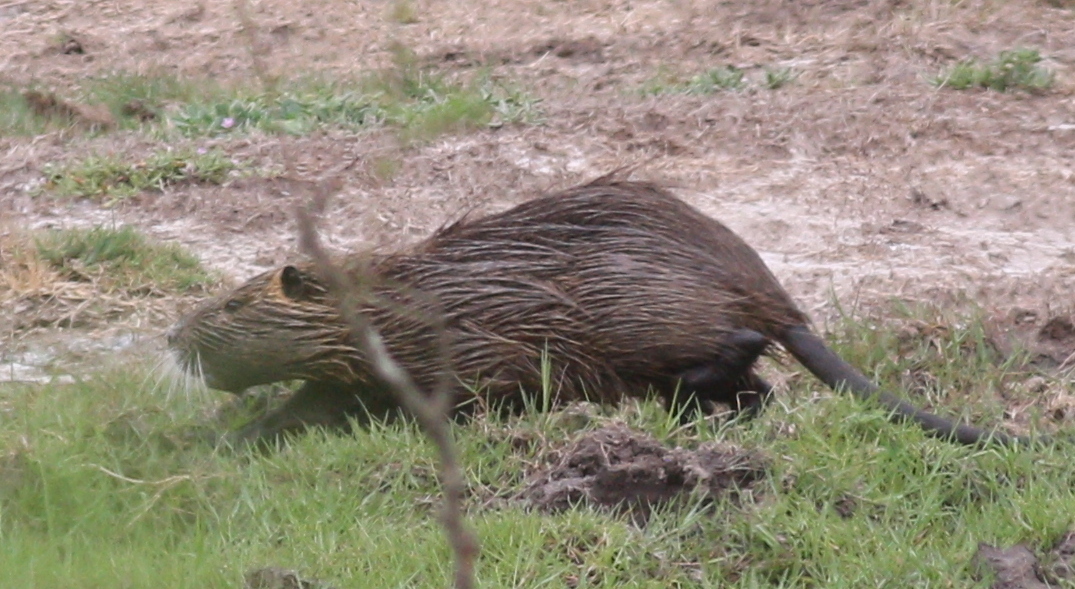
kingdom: Animalia
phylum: Chordata
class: Mammalia
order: Rodentia
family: Myocastoridae
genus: Myocastor
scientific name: Myocastor coypus
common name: Coypu
